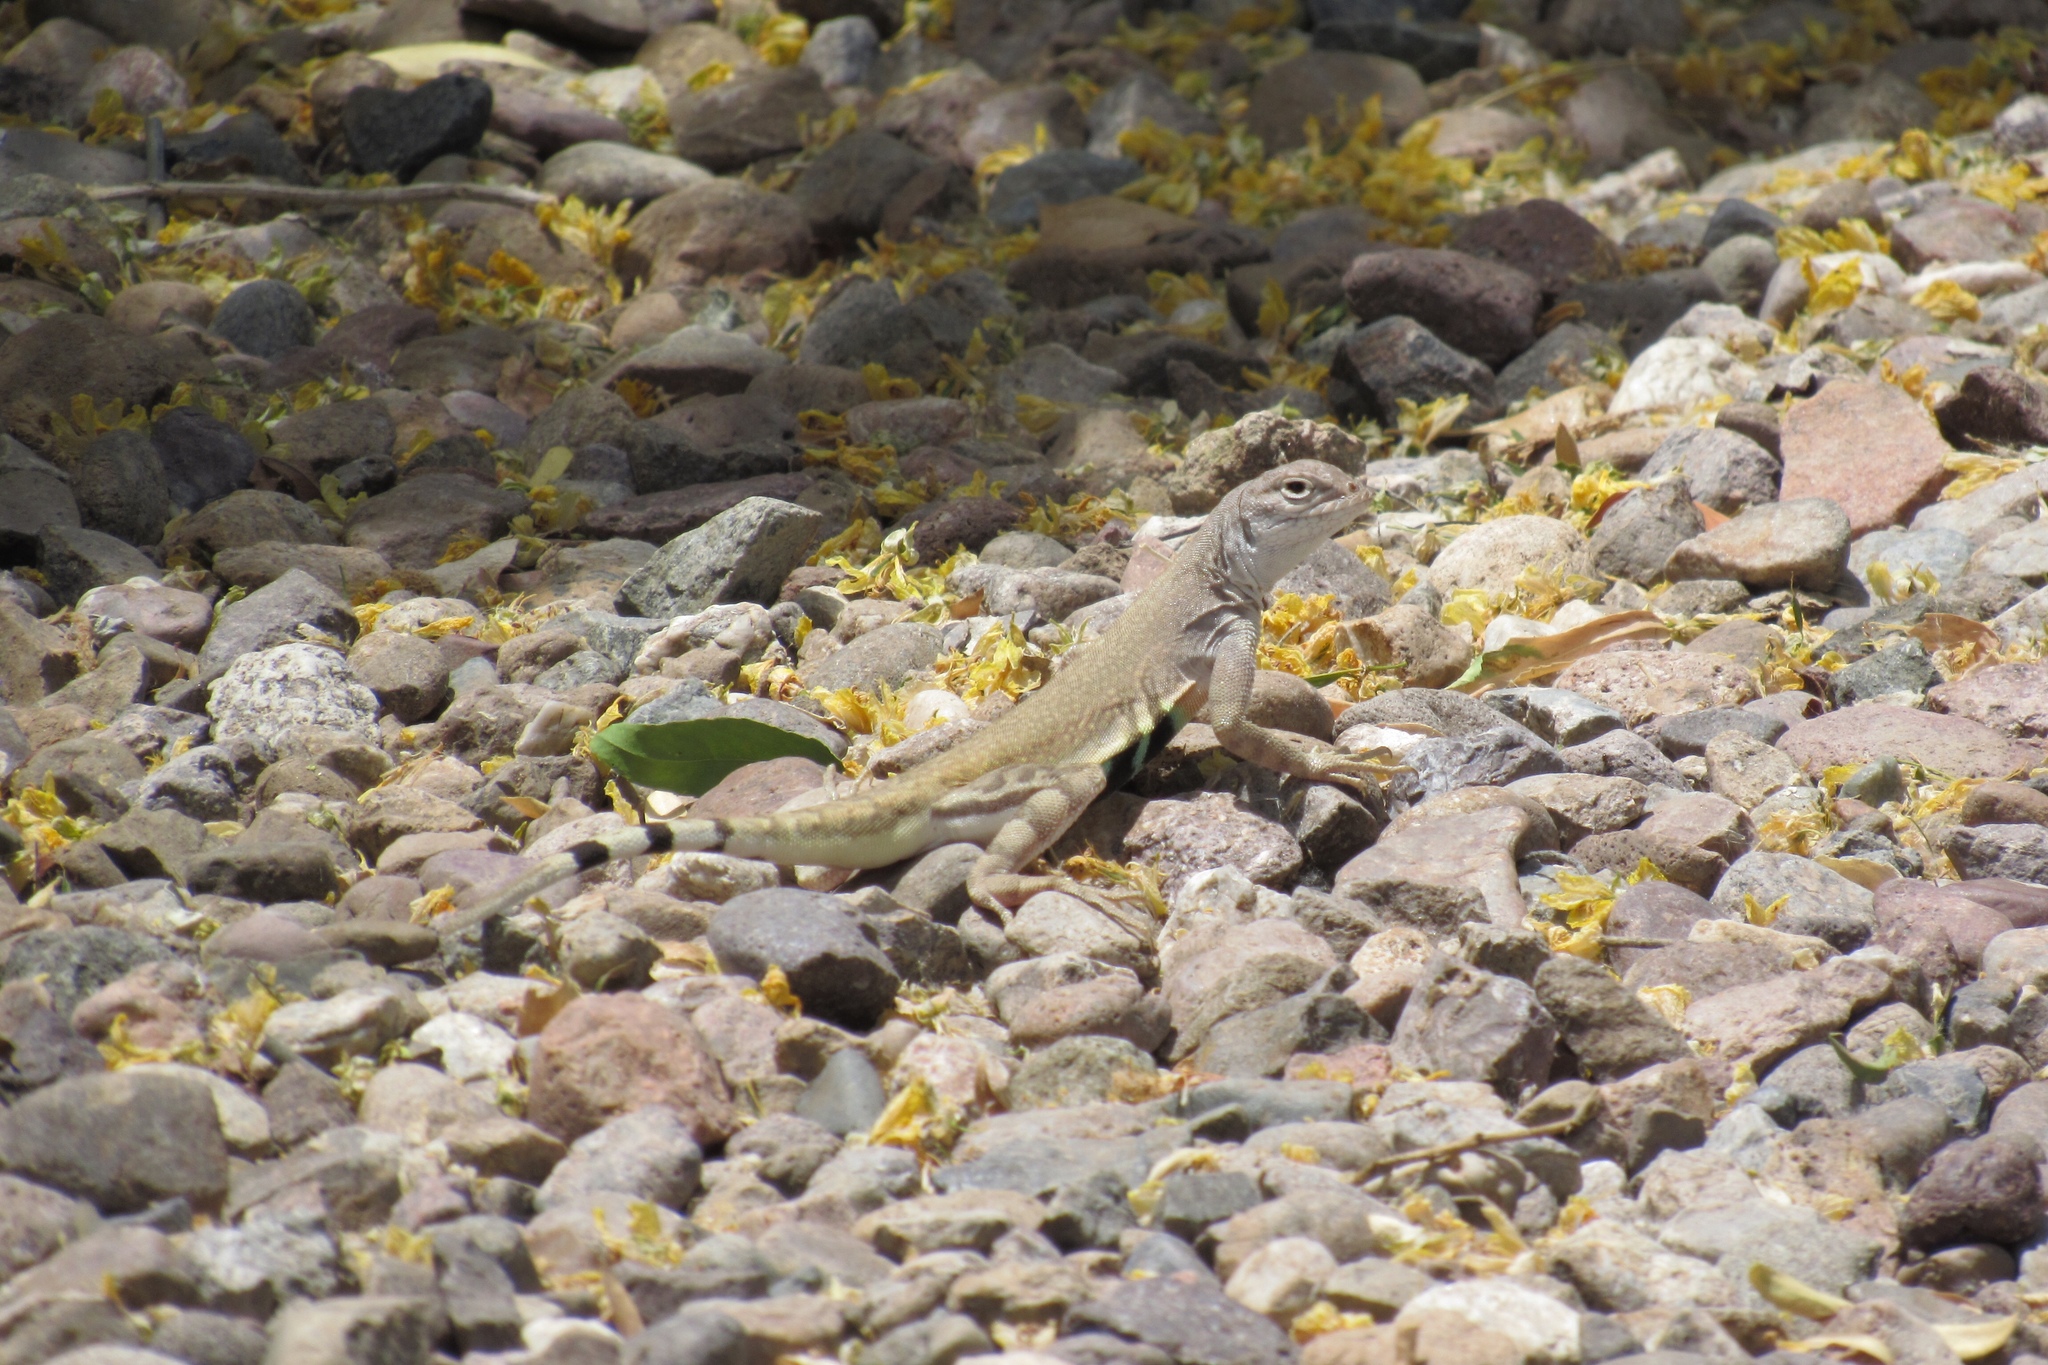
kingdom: Animalia
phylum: Chordata
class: Squamata
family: Phrynosomatidae
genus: Callisaurus
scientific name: Callisaurus draconoides
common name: Zebra-tailed lizard
